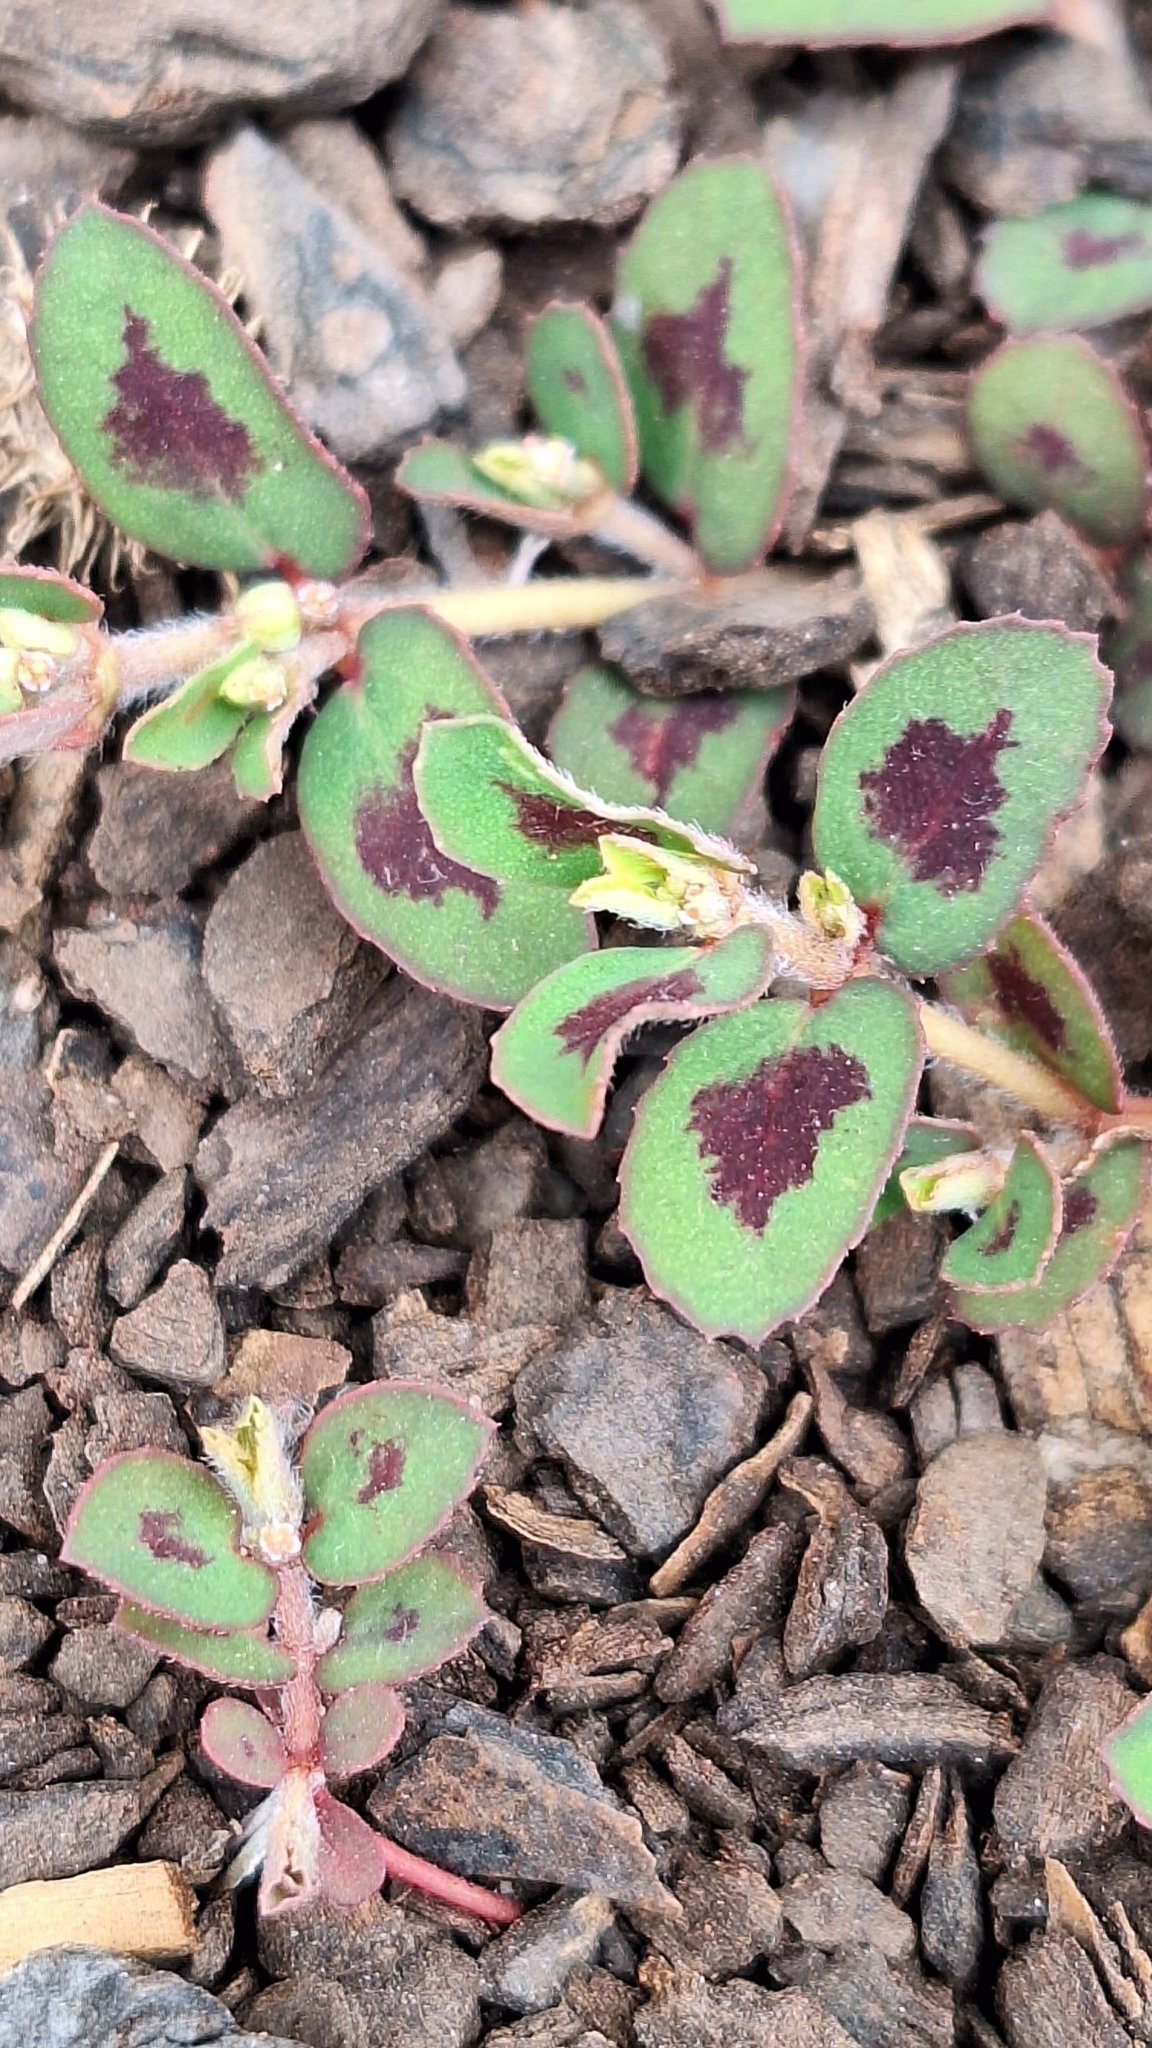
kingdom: Plantae
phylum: Tracheophyta
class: Magnoliopsida
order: Malpighiales
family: Euphorbiaceae
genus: Euphorbia
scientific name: Euphorbia maculata
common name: Spotted spurge
